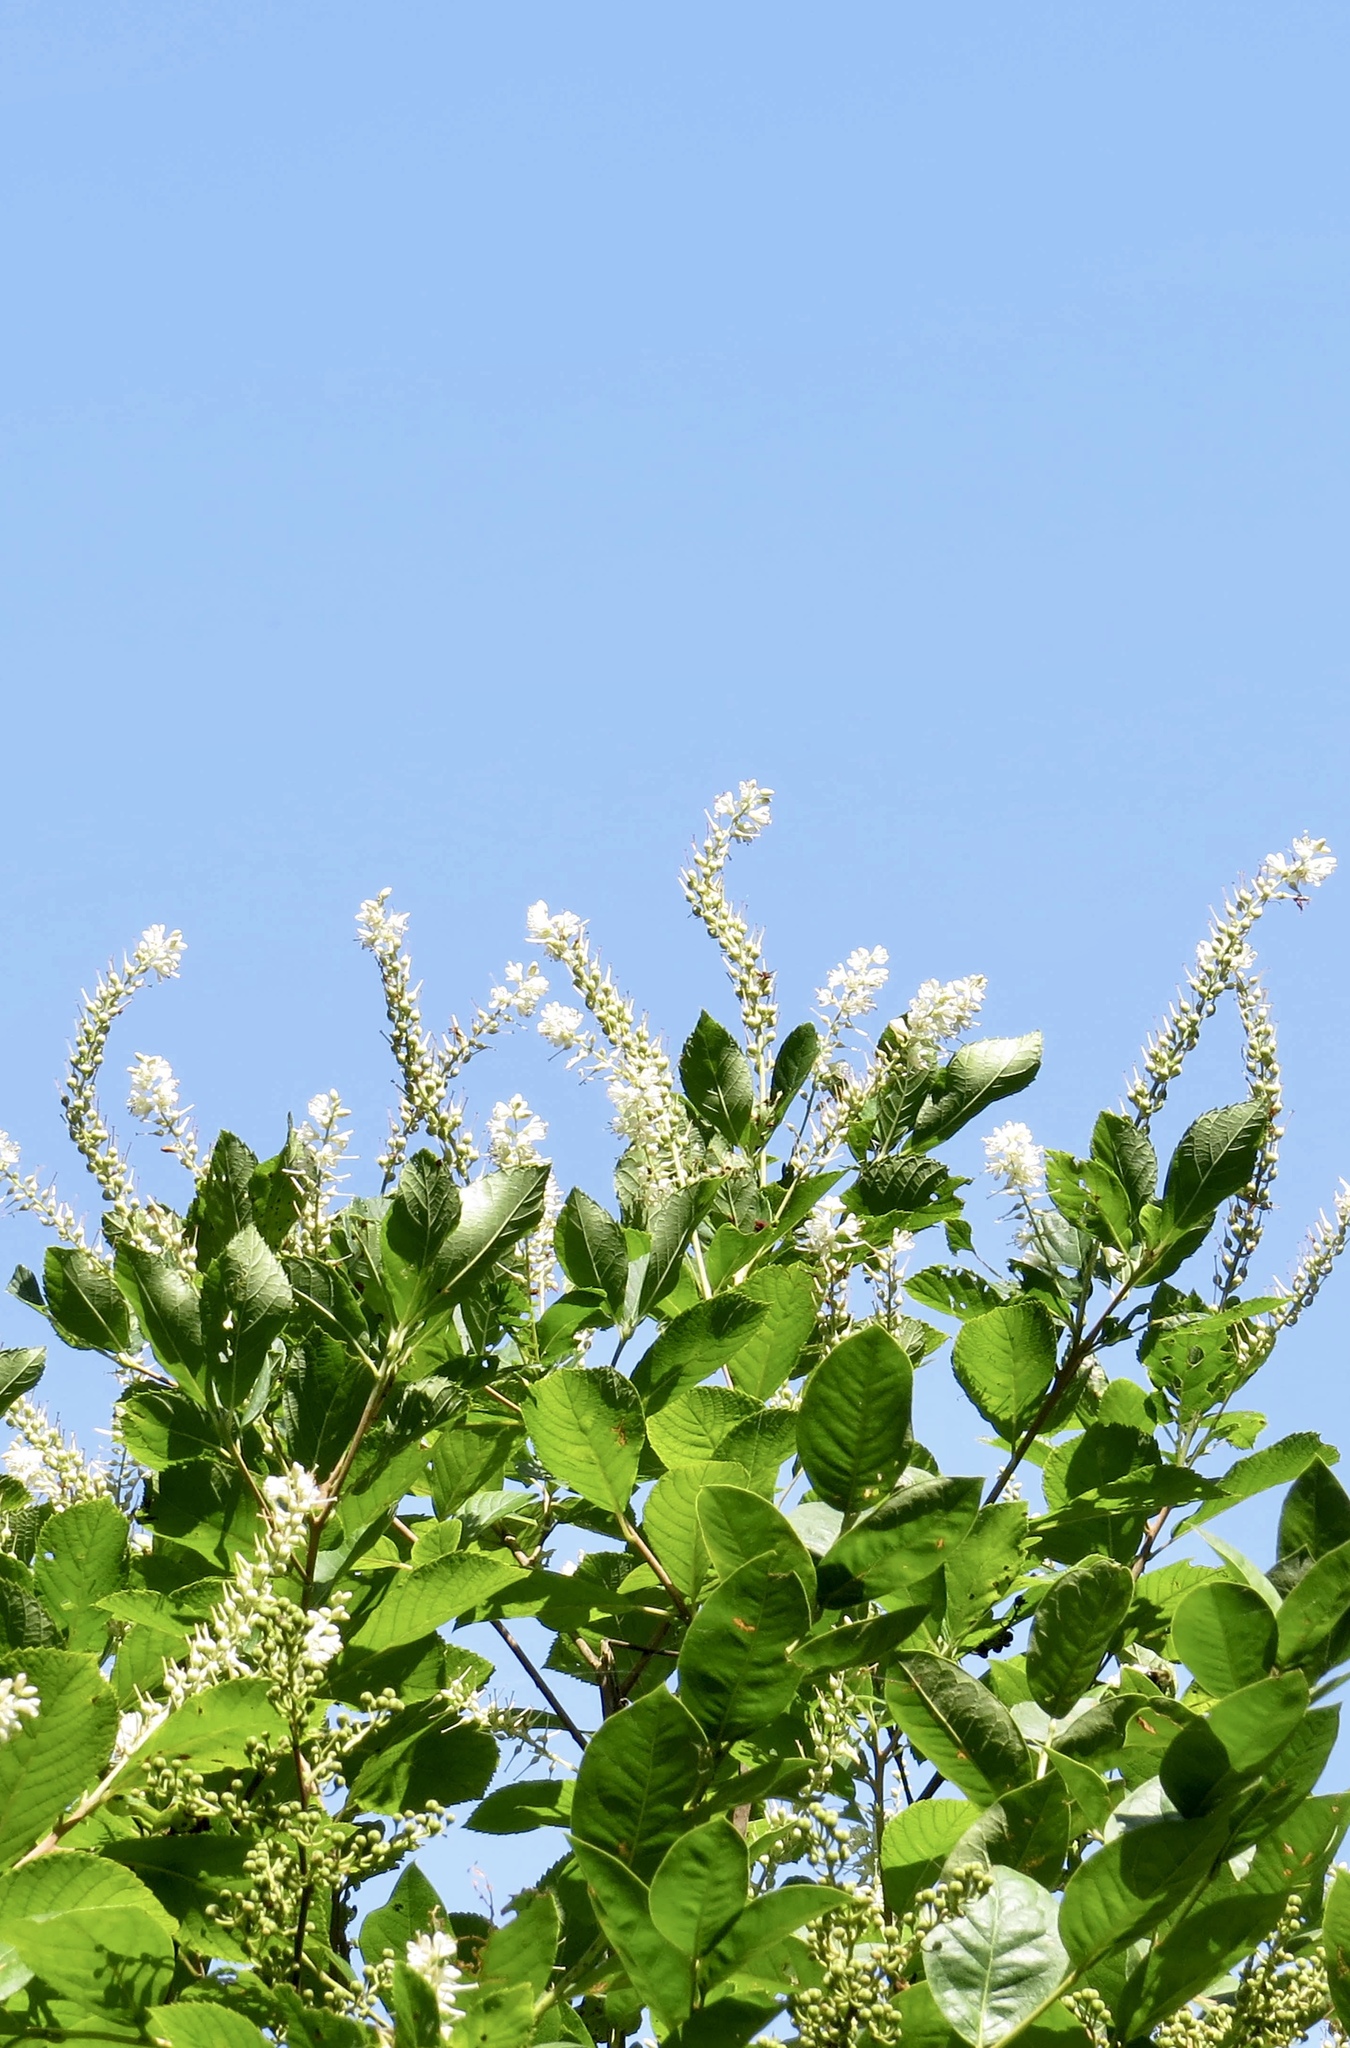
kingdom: Plantae
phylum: Tracheophyta
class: Magnoliopsida
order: Ericales
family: Clethraceae
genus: Clethra
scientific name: Clethra alnifolia
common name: Sweet pepperbush
